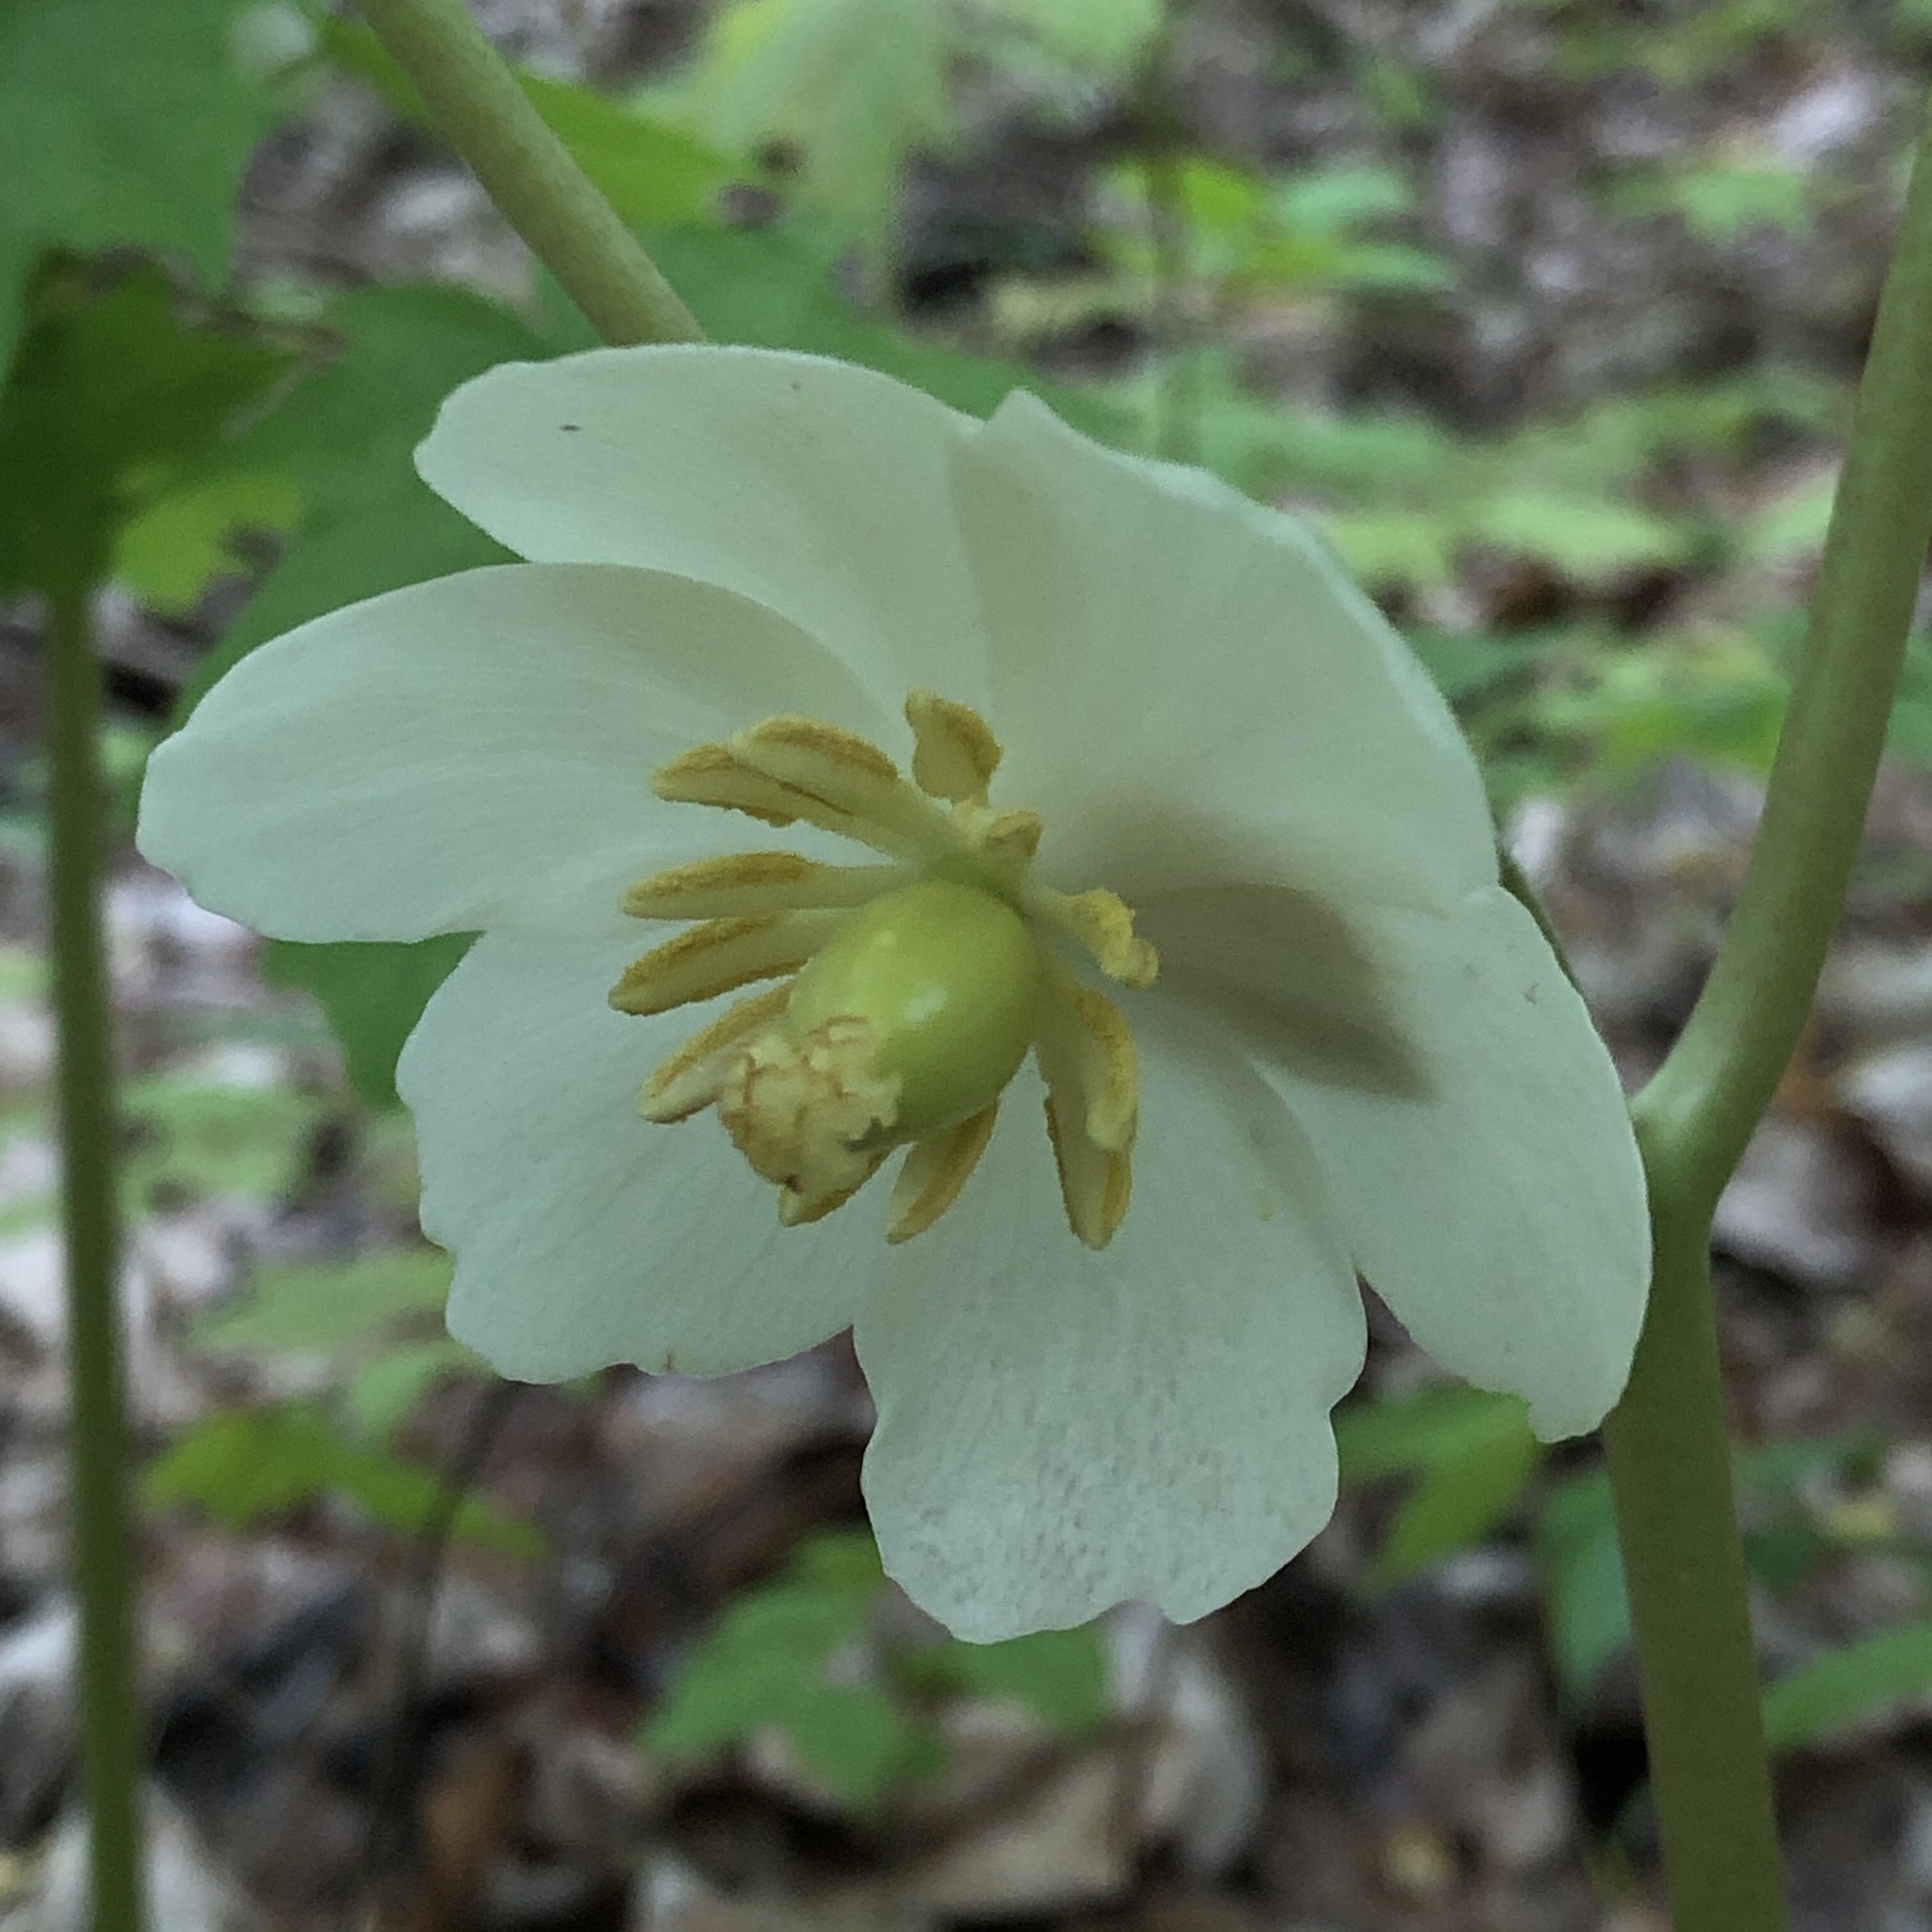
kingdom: Plantae
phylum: Tracheophyta
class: Magnoliopsida
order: Ranunculales
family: Berberidaceae
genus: Podophyllum
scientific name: Podophyllum peltatum
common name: Wild mandrake
